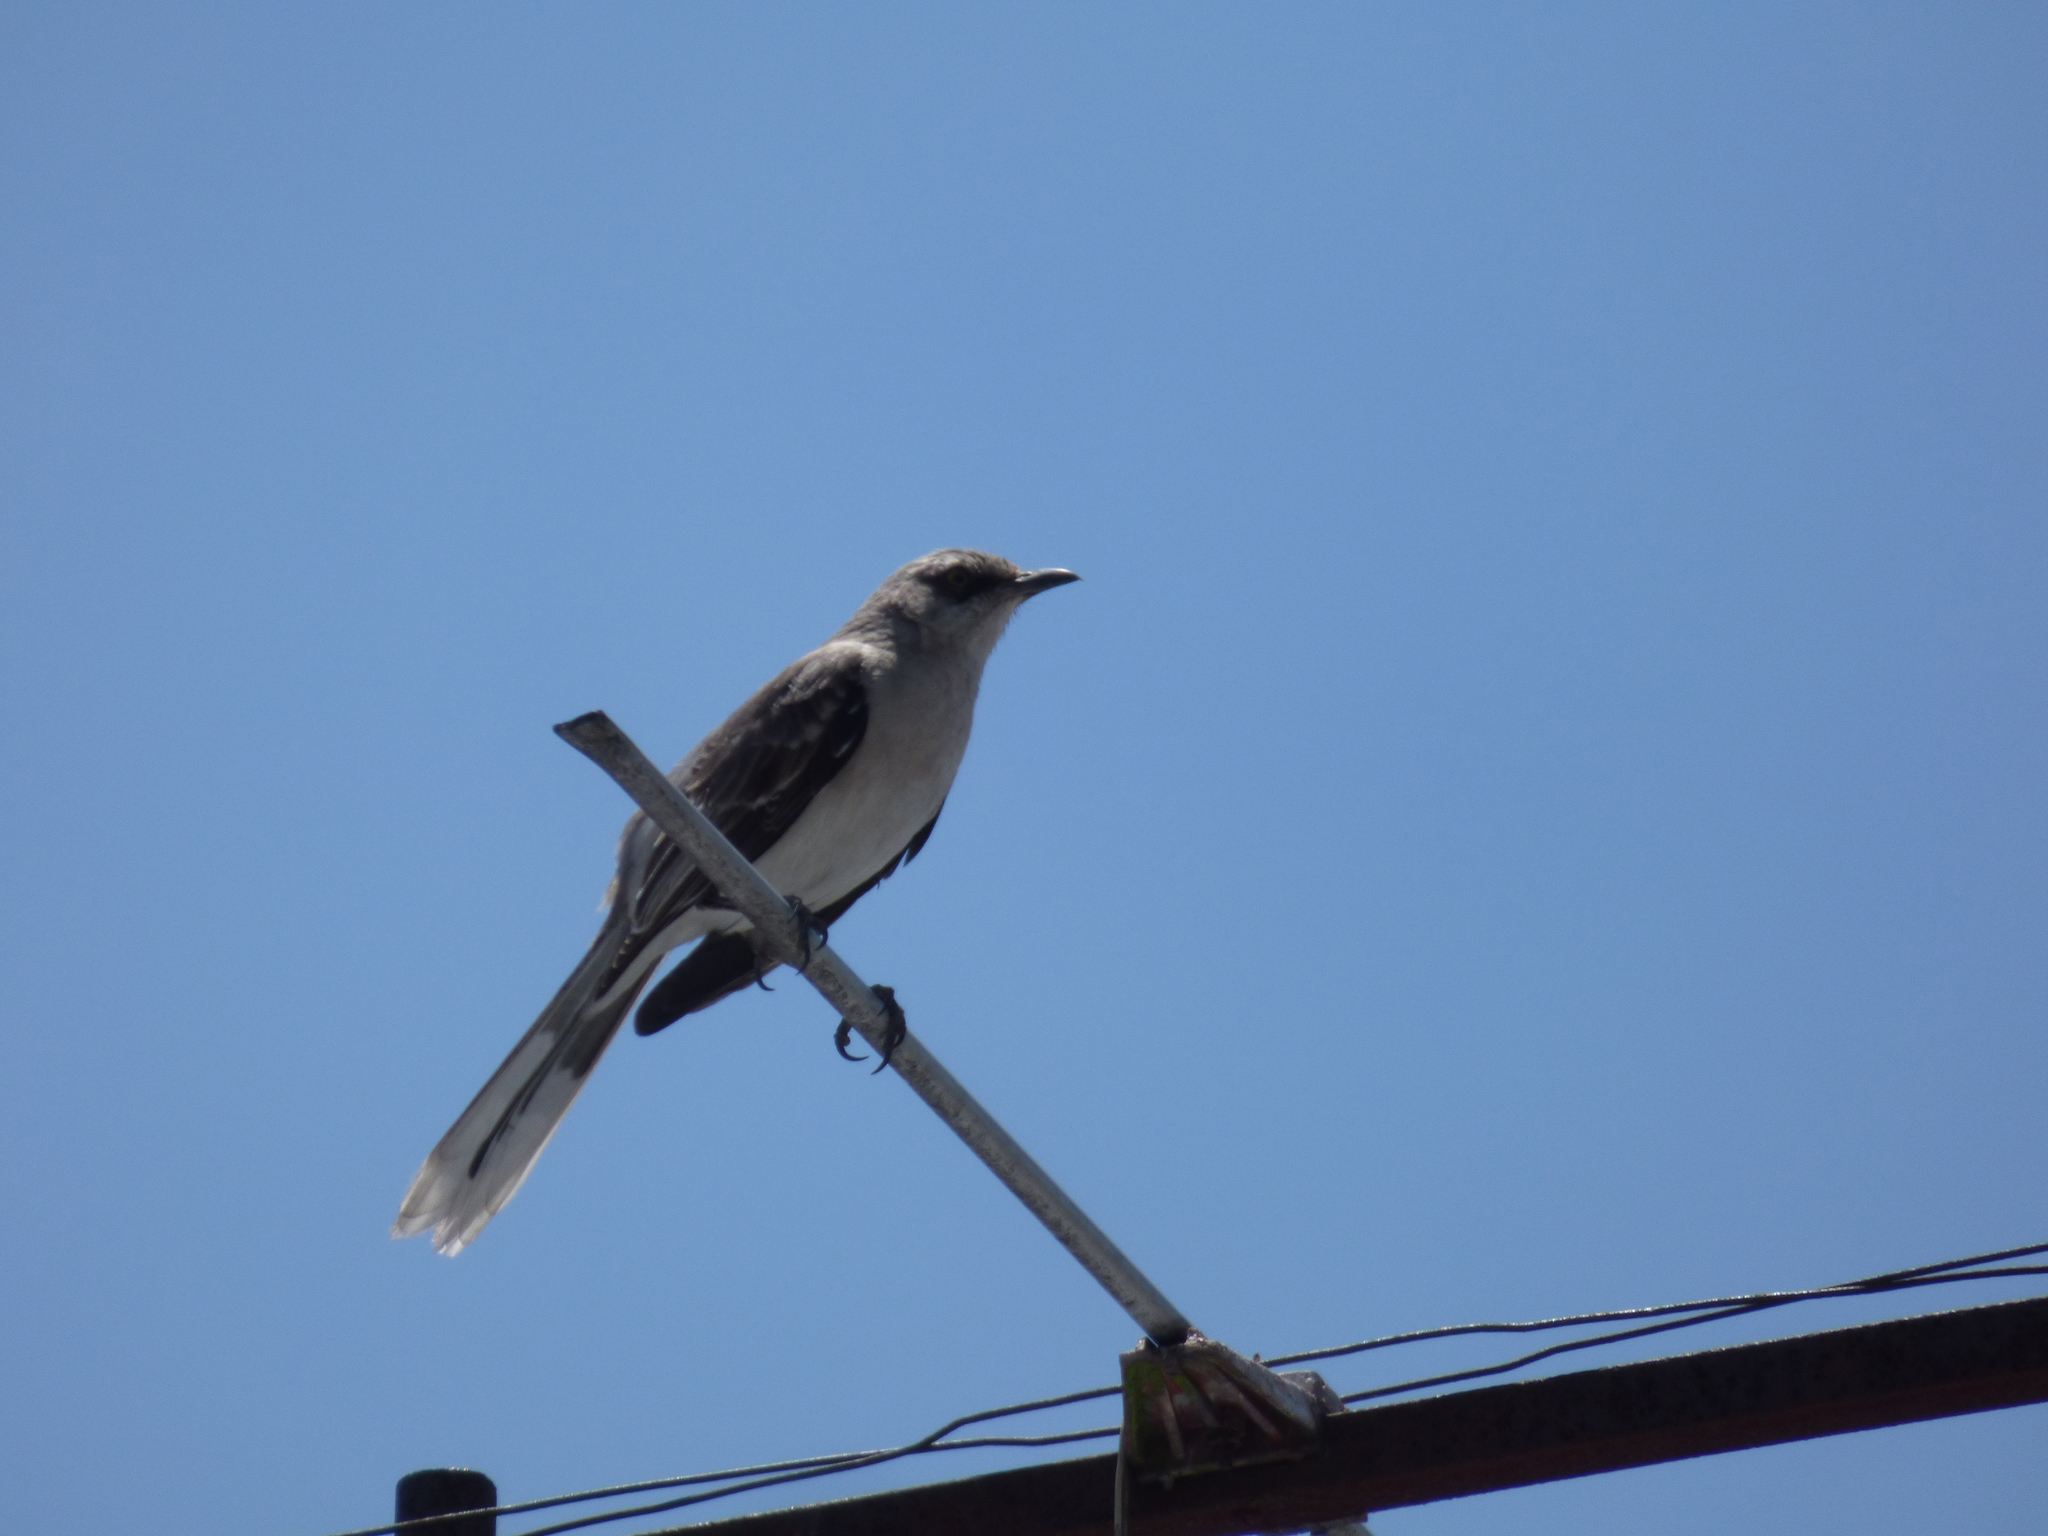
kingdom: Animalia
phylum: Chordata
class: Aves
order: Passeriformes
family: Mimidae
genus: Mimus
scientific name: Mimus gilvus
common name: Tropical mockingbird
